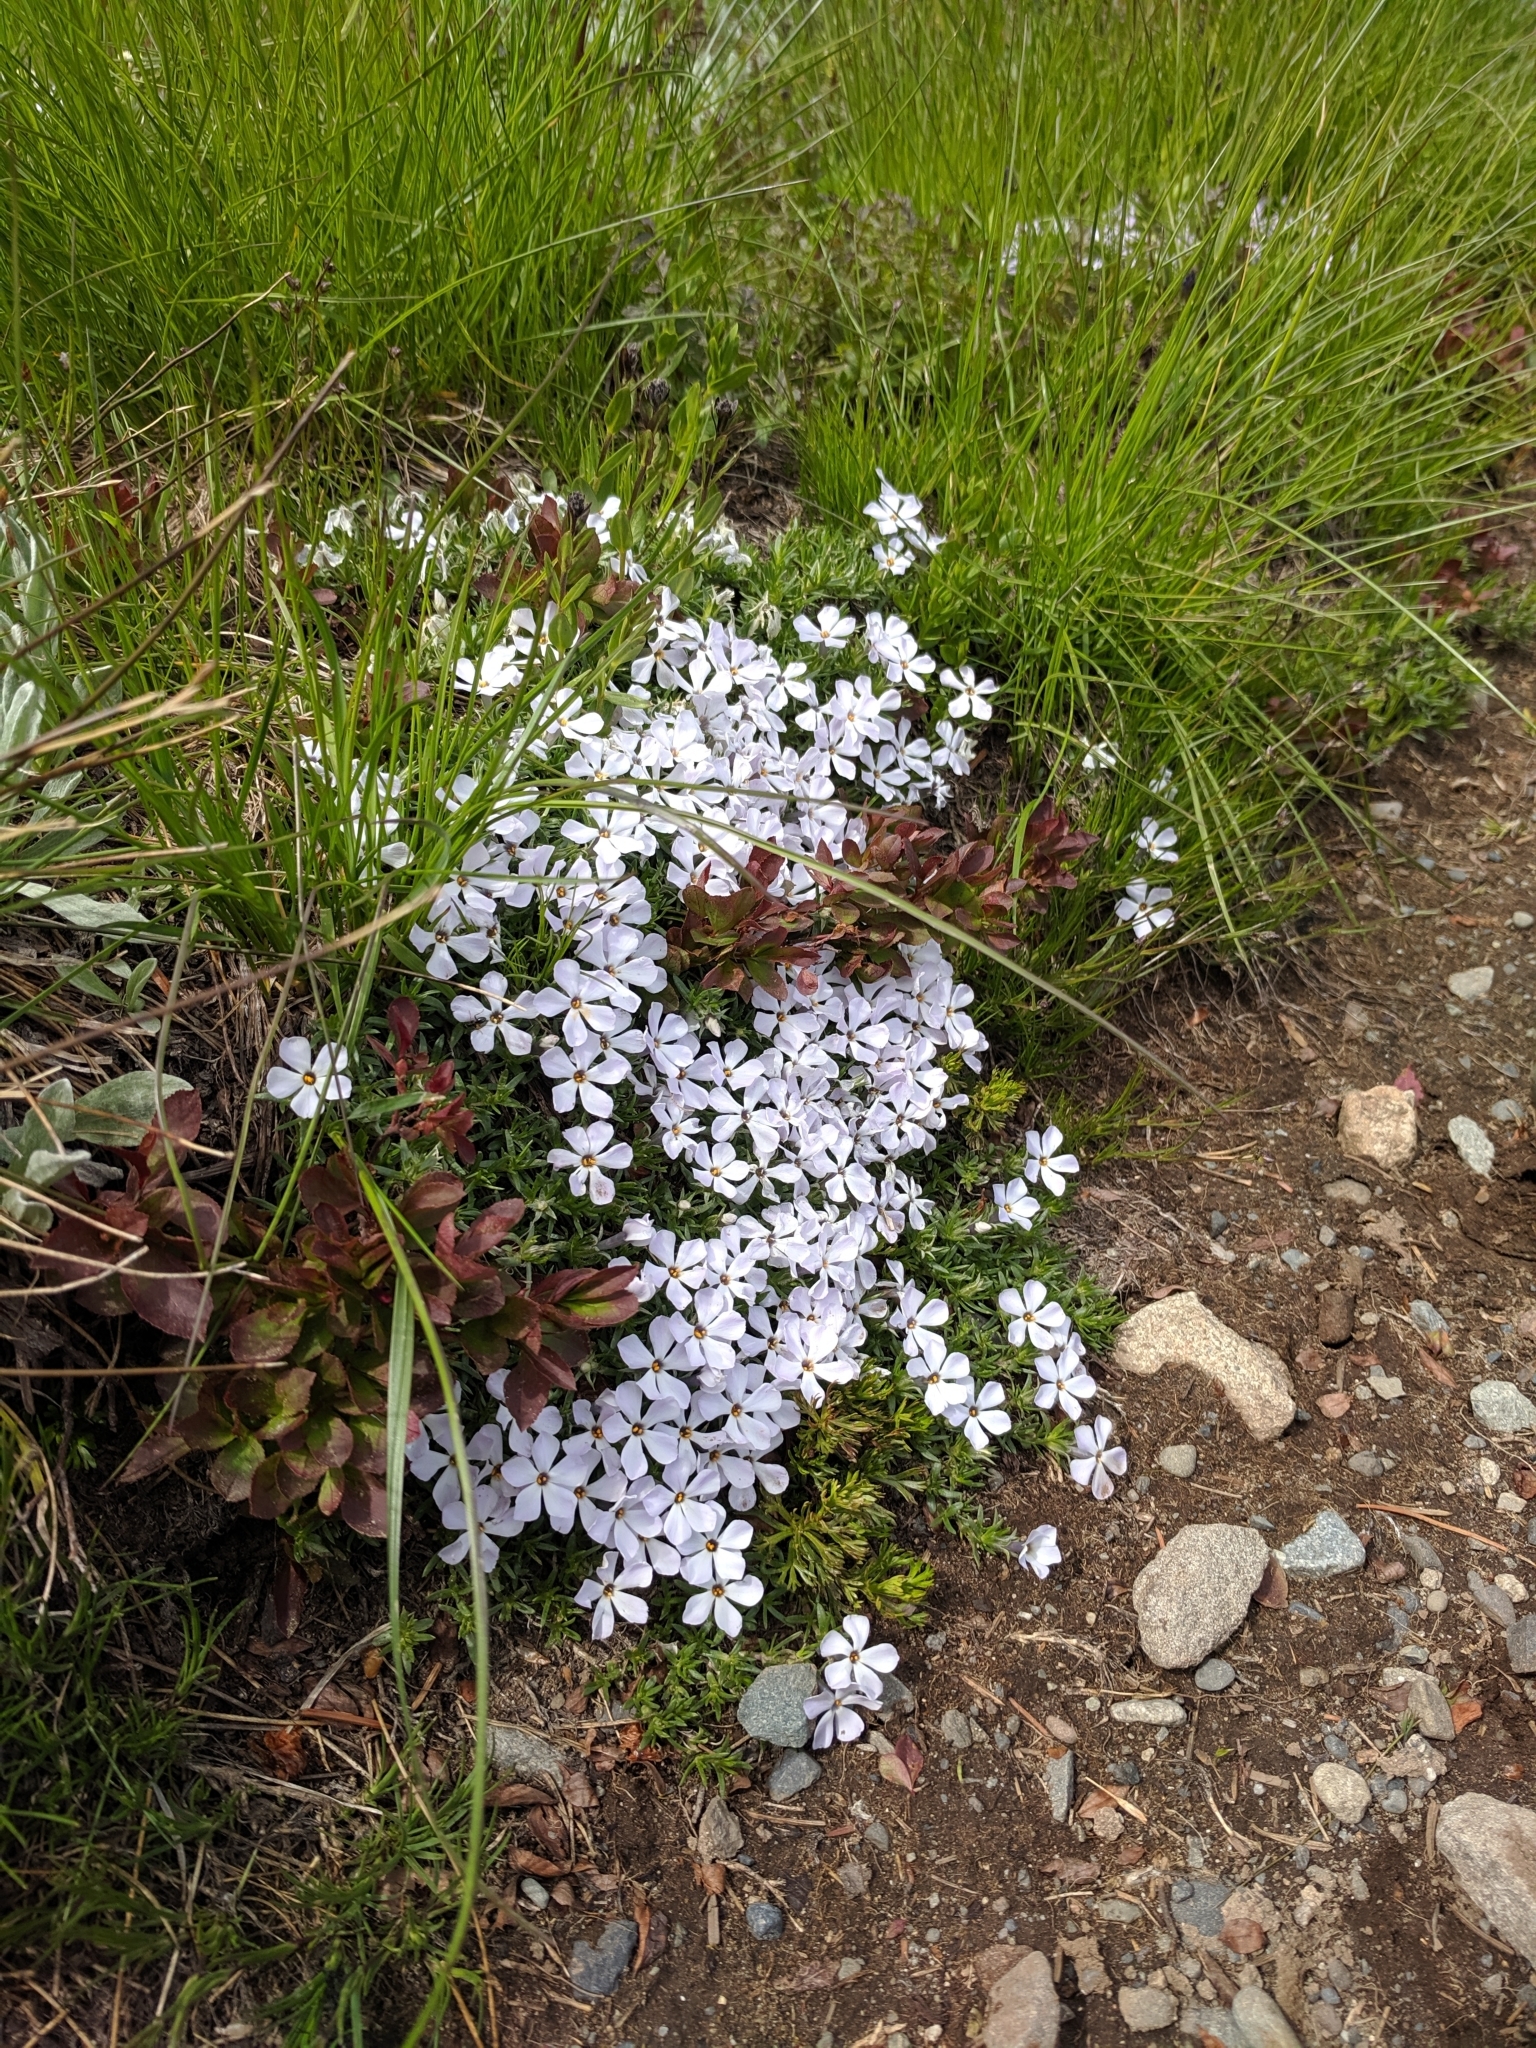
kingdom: Plantae
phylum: Tracheophyta
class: Magnoliopsida
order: Ericales
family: Polemoniaceae
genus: Phlox
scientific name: Phlox diffusa
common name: Mat phlox
